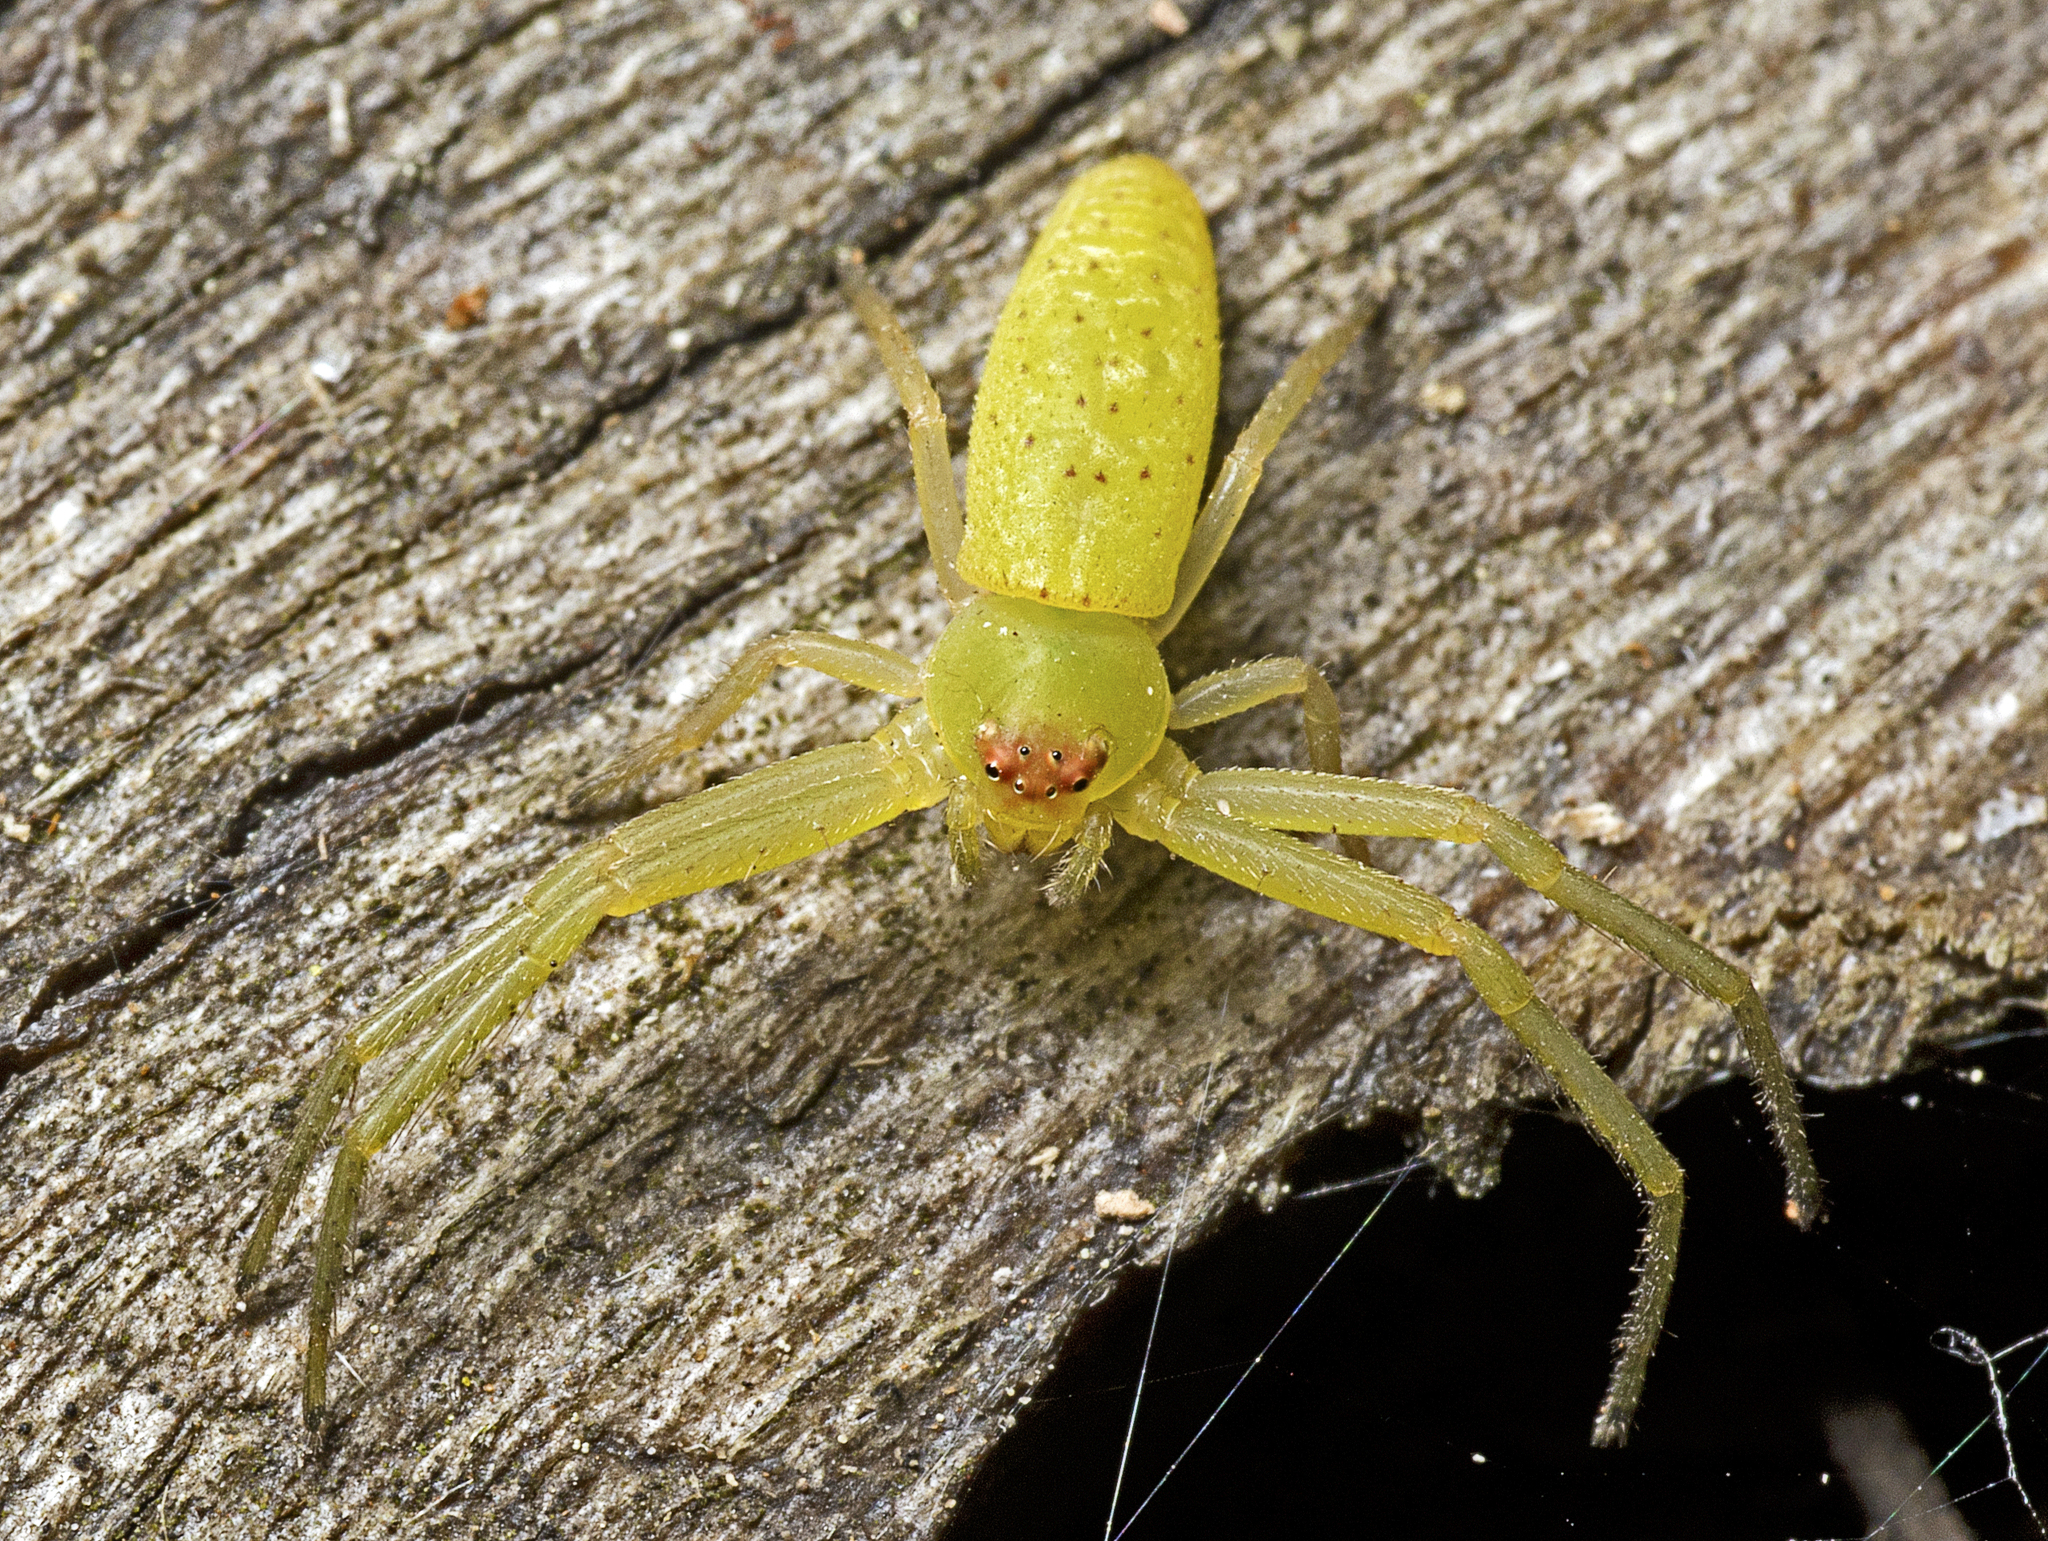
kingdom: Animalia
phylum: Arthropoda
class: Arachnida
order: Araneae
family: Thomisidae
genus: Cetratus
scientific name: Cetratus rubropunctatus
